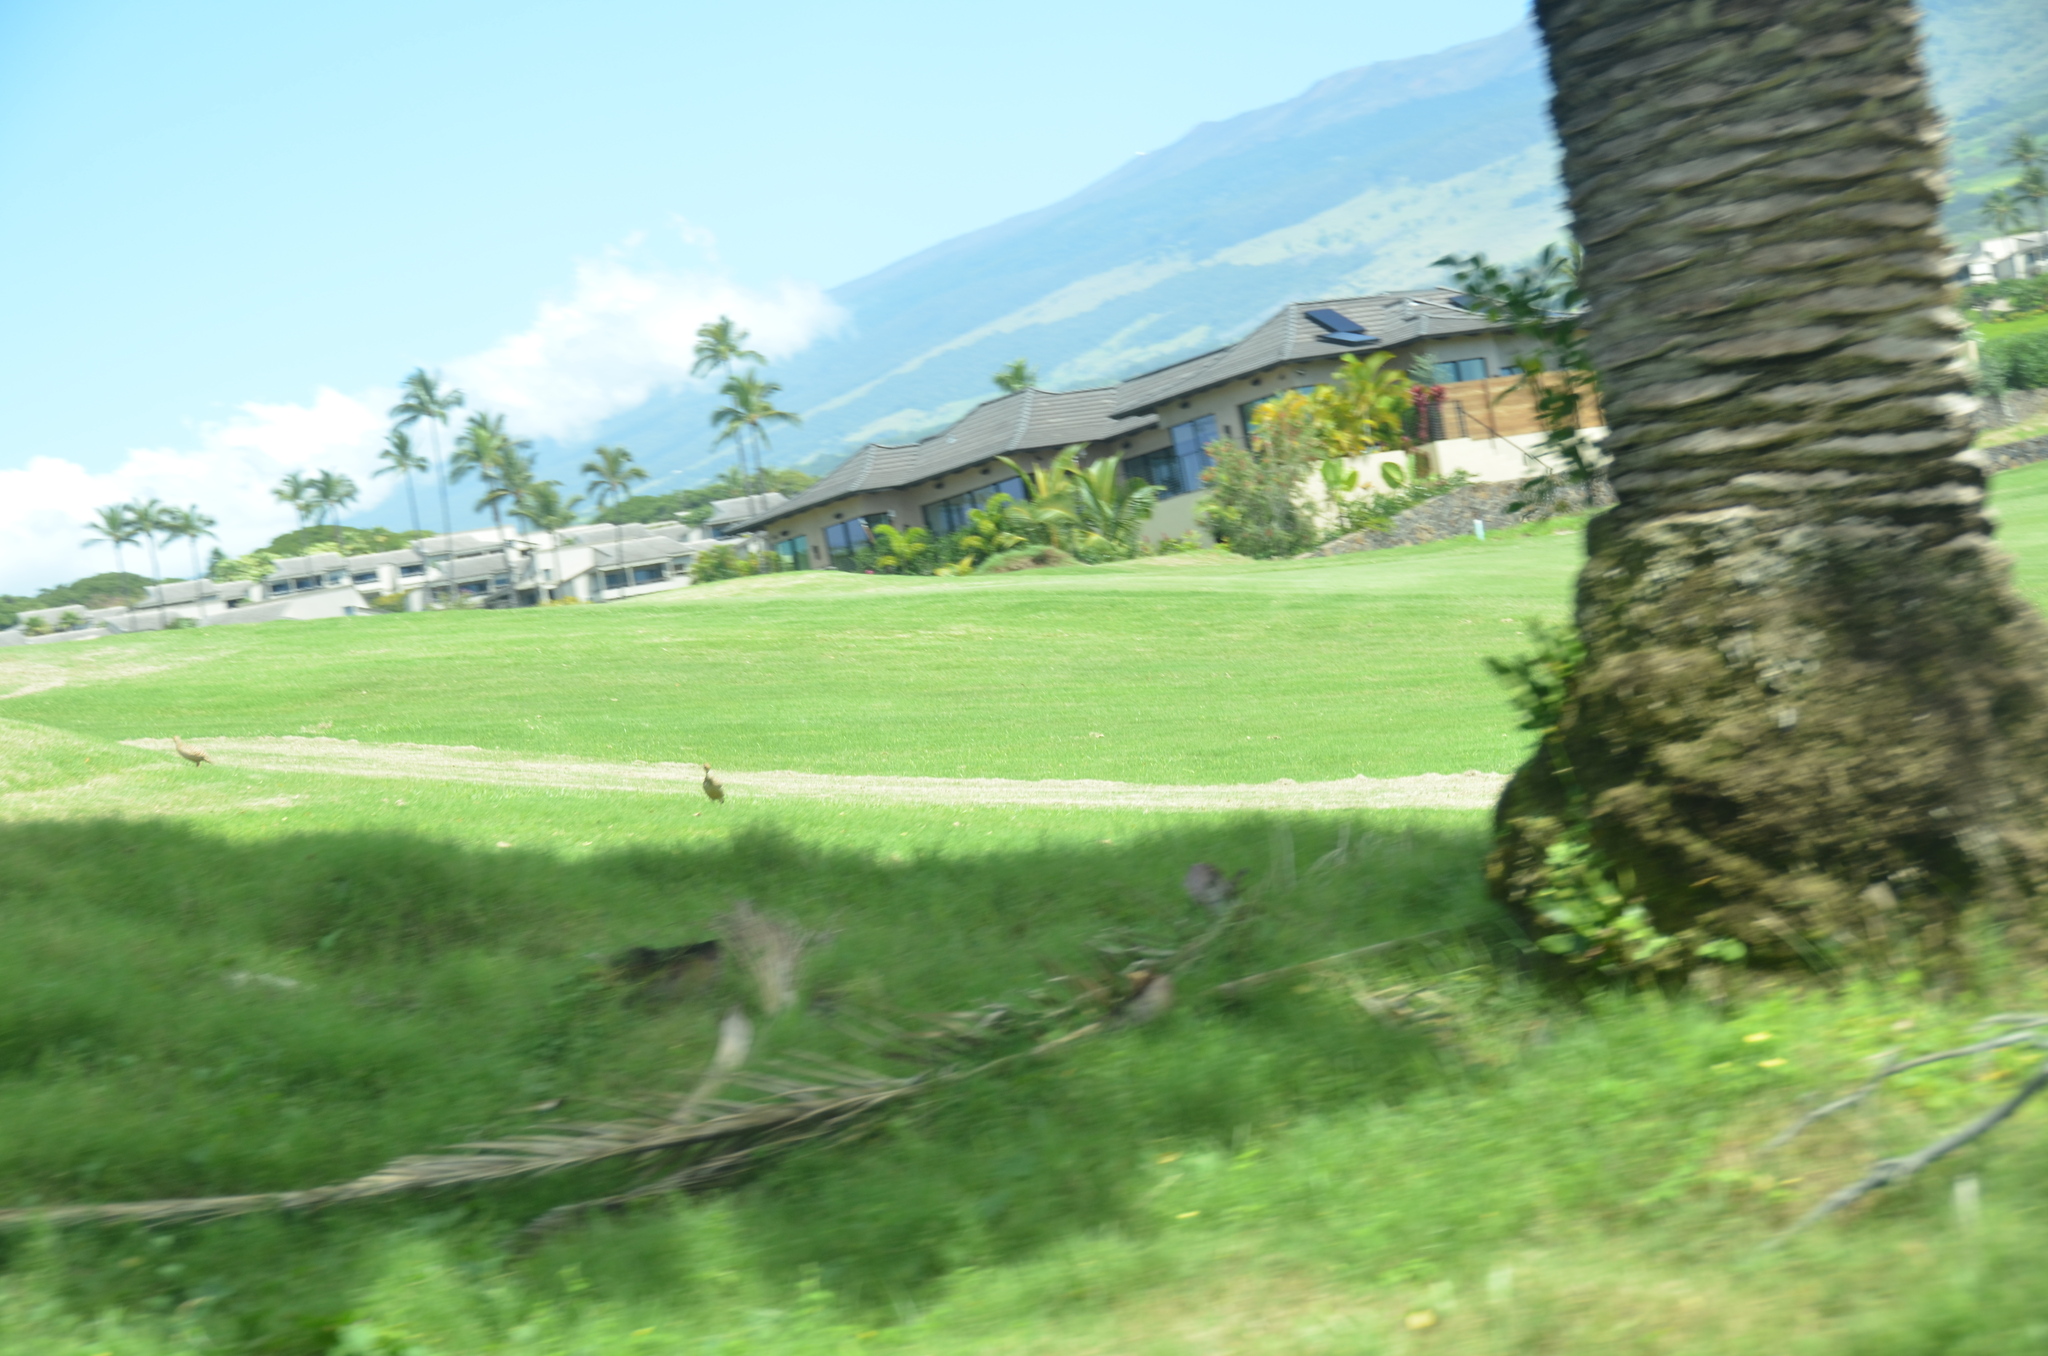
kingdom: Animalia
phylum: Chordata
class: Aves
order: Galliformes
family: Phasianidae
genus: Ortygornis
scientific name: Ortygornis pondicerianus
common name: Grey francolin
